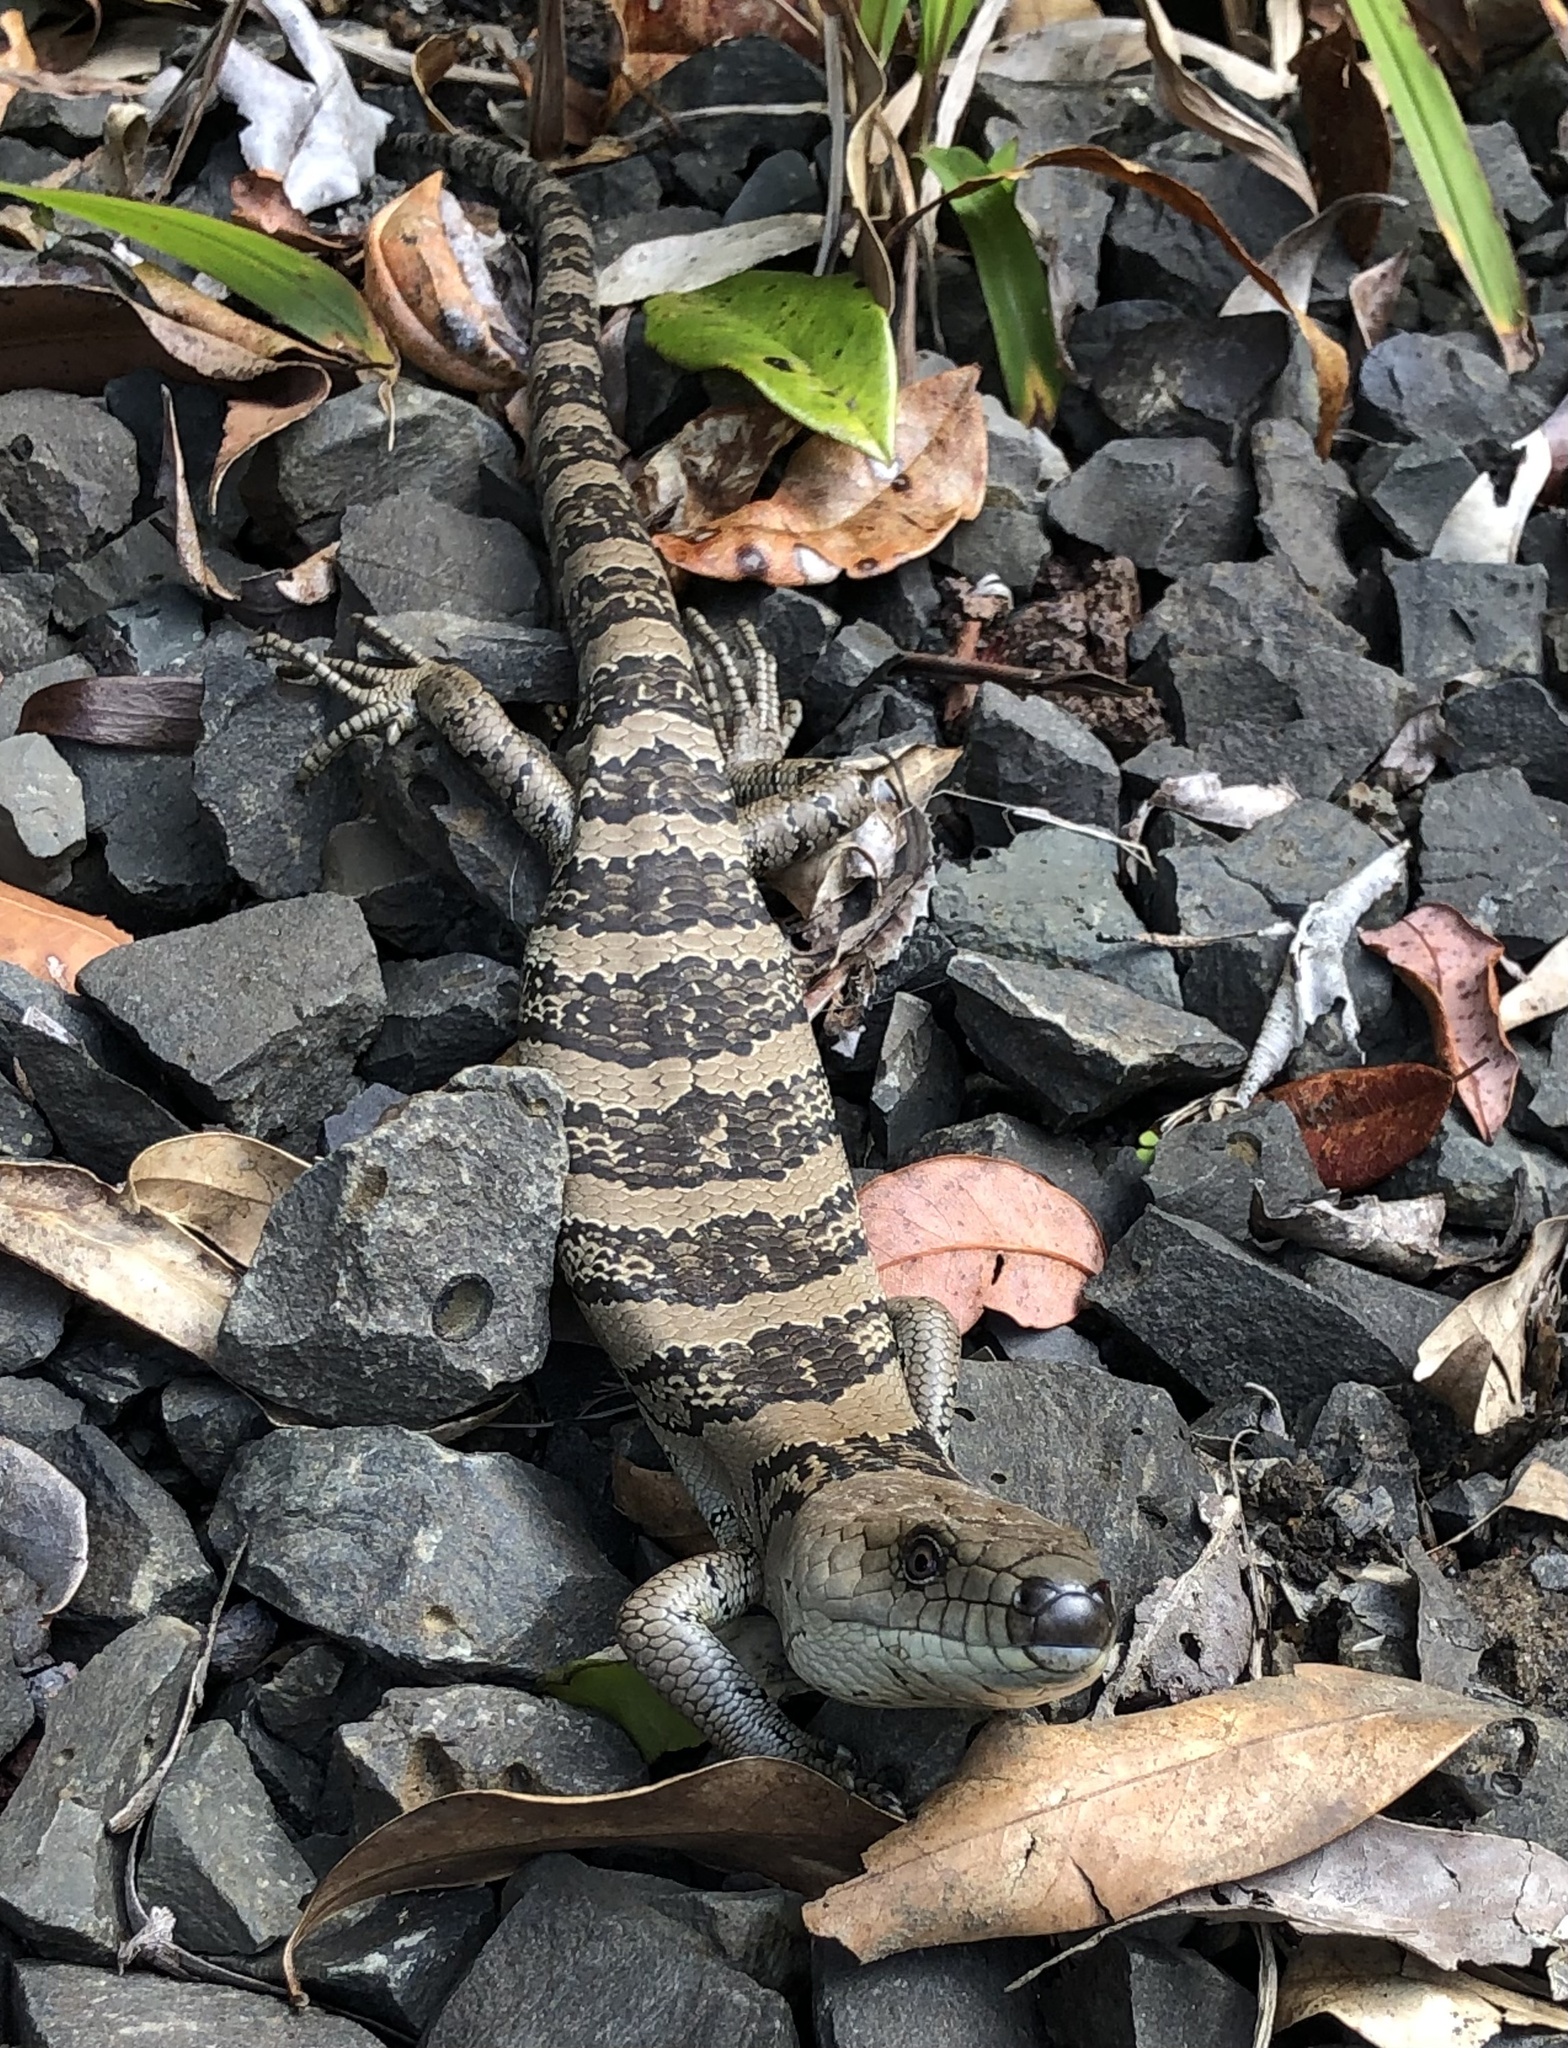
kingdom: Animalia
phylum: Chordata
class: Squamata
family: Scincidae
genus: Cyclodomorphus
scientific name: Cyclodomorphus gerrardii
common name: Pink-tongued lizard
